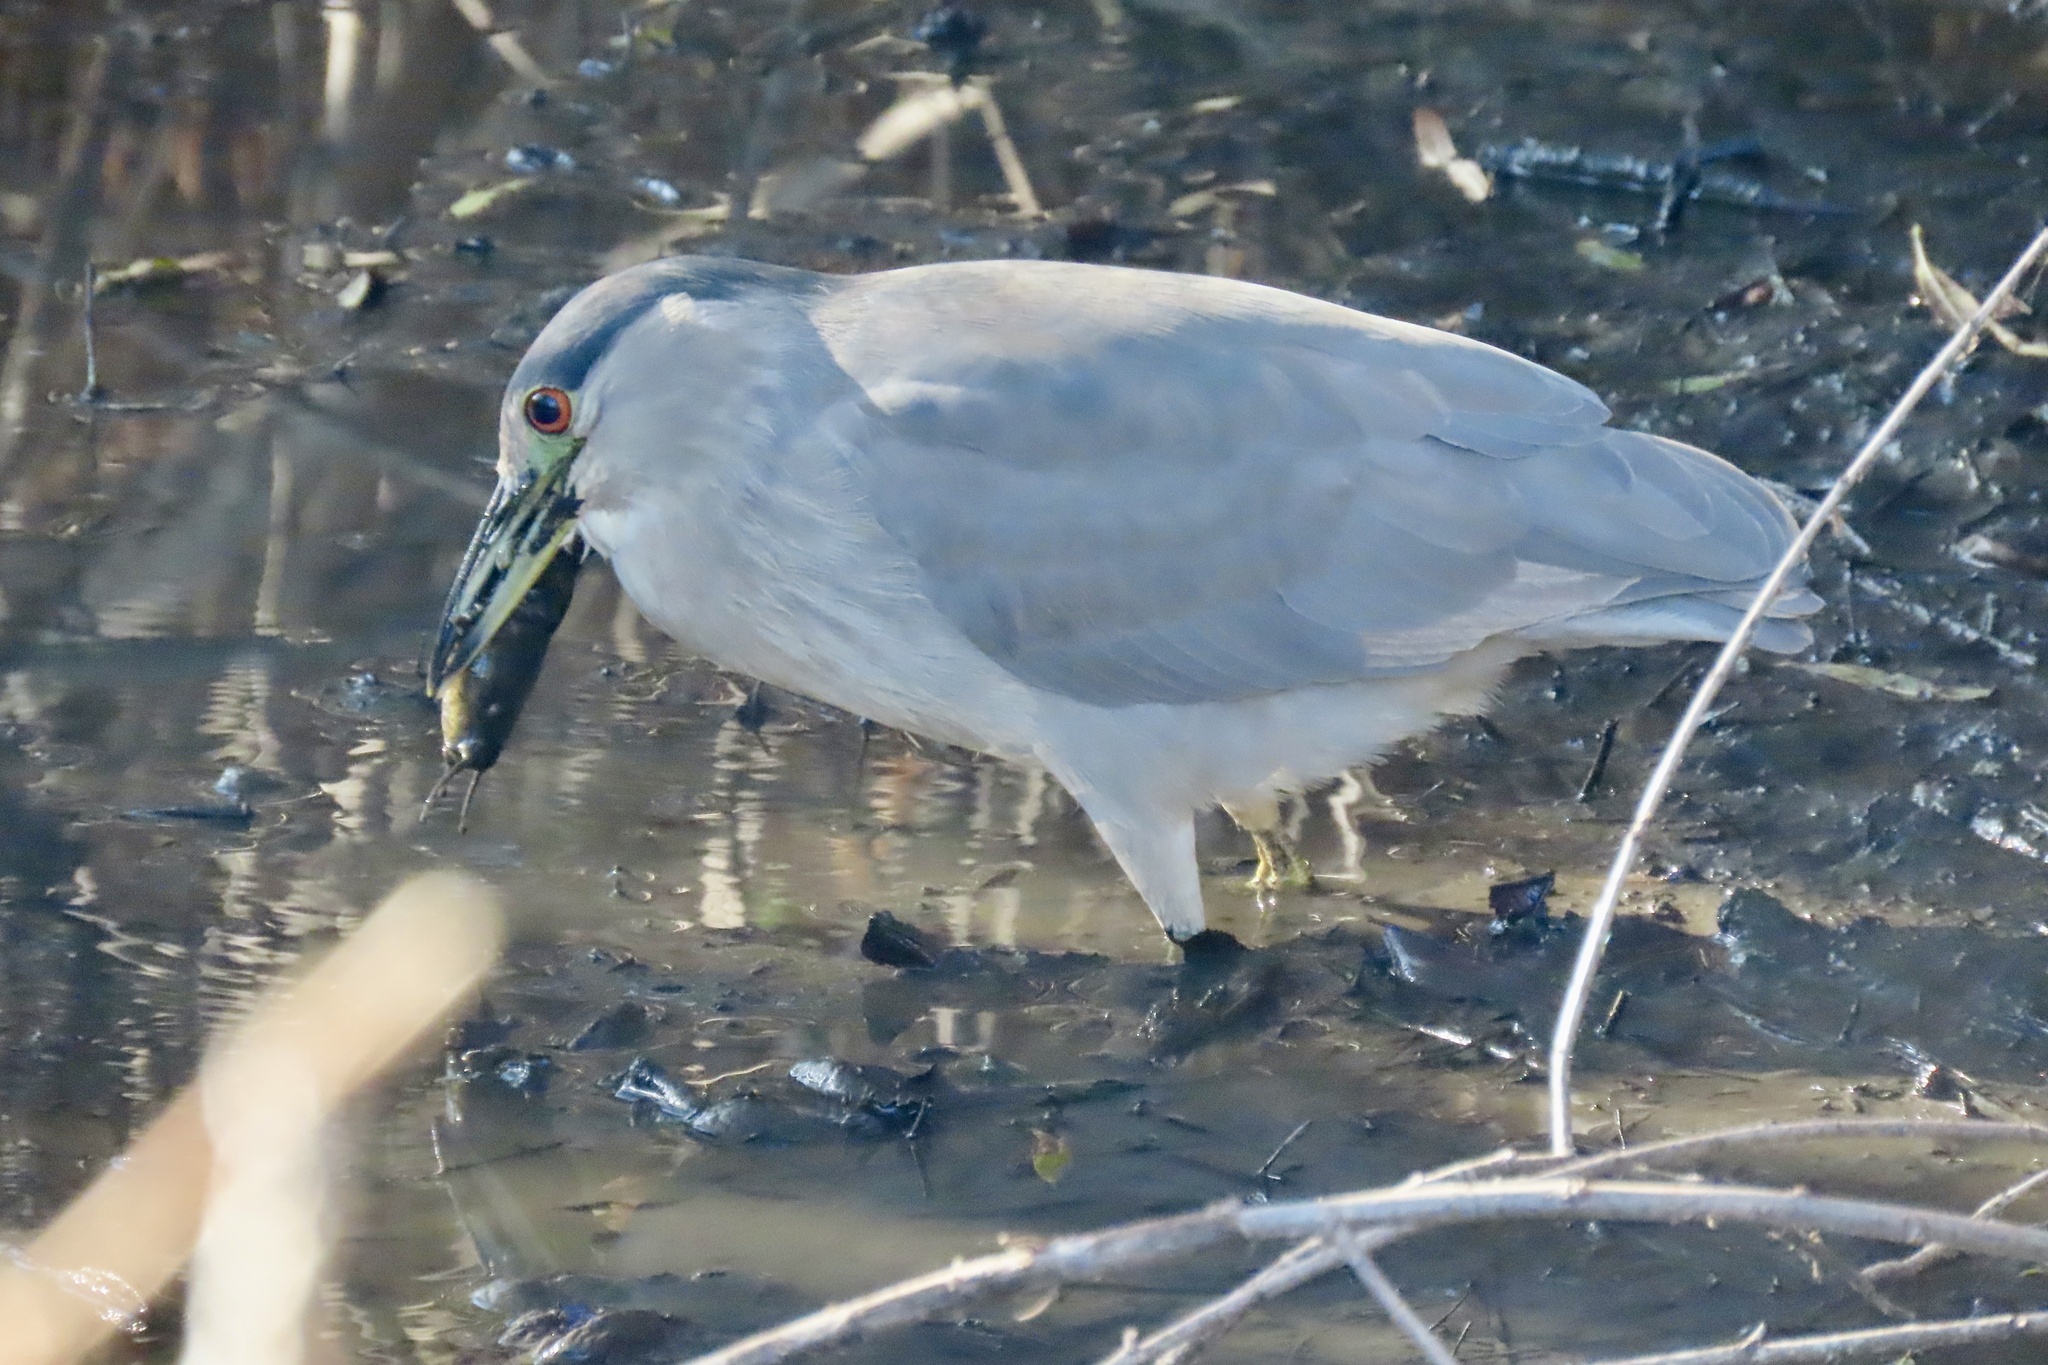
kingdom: Animalia
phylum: Chordata
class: Aves
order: Pelecaniformes
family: Ardeidae
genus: Nycticorax
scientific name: Nycticorax nycticorax
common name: Black-crowned night heron
